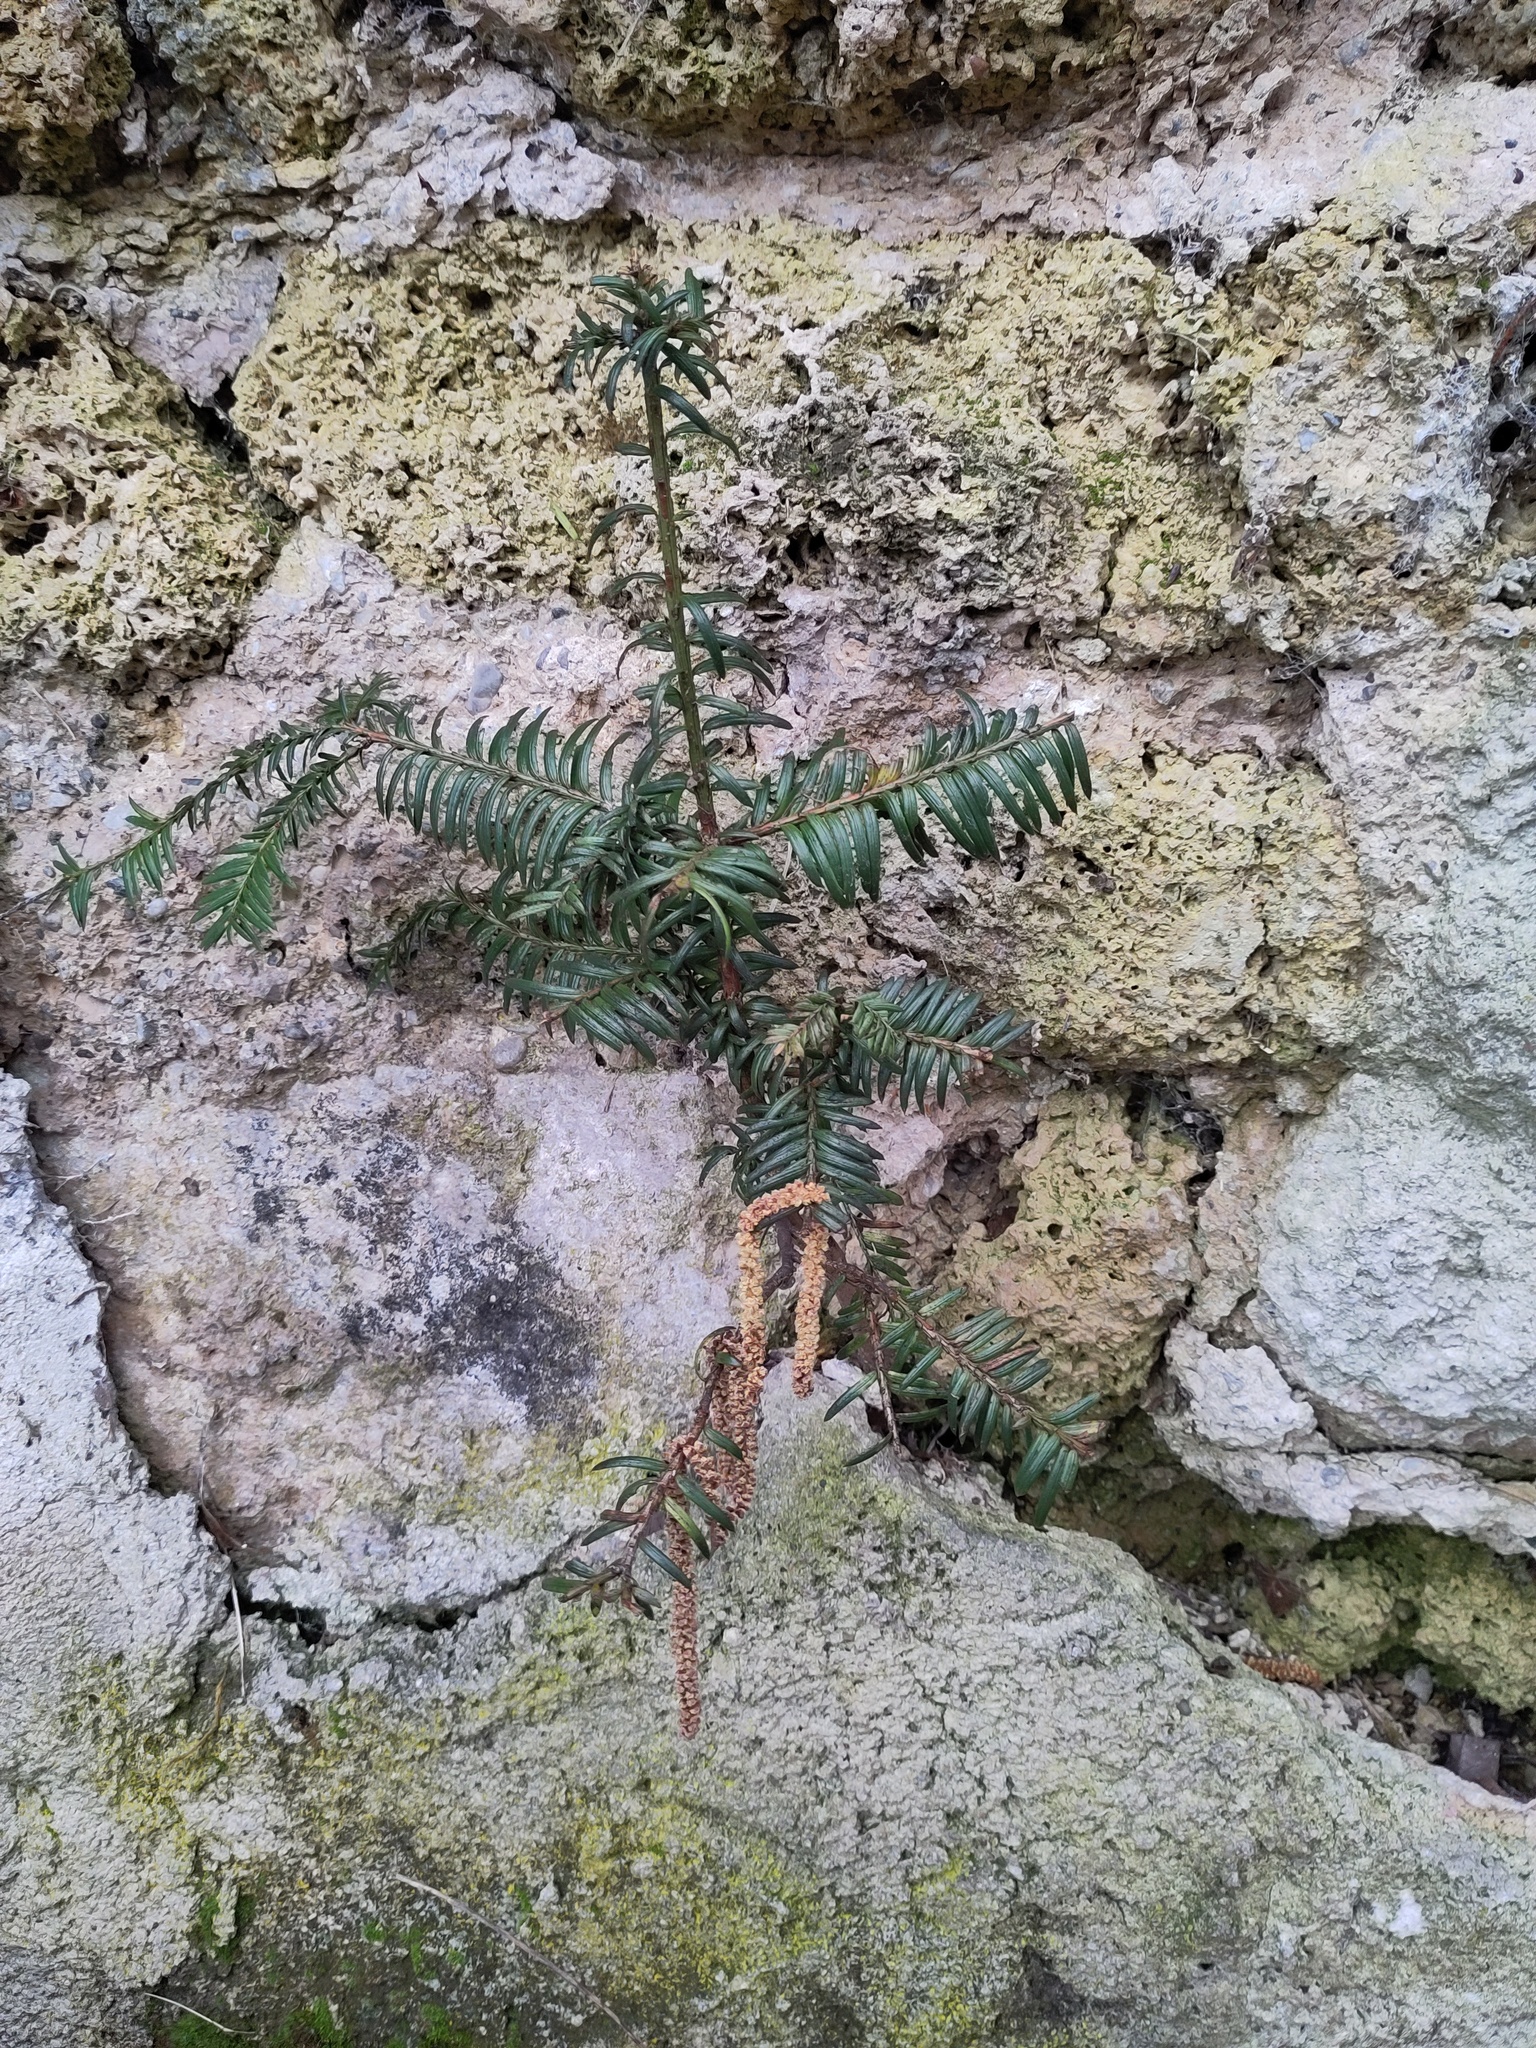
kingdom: Plantae
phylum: Tracheophyta
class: Pinopsida
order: Pinales
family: Taxaceae
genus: Taxus
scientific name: Taxus baccata
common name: Yew
